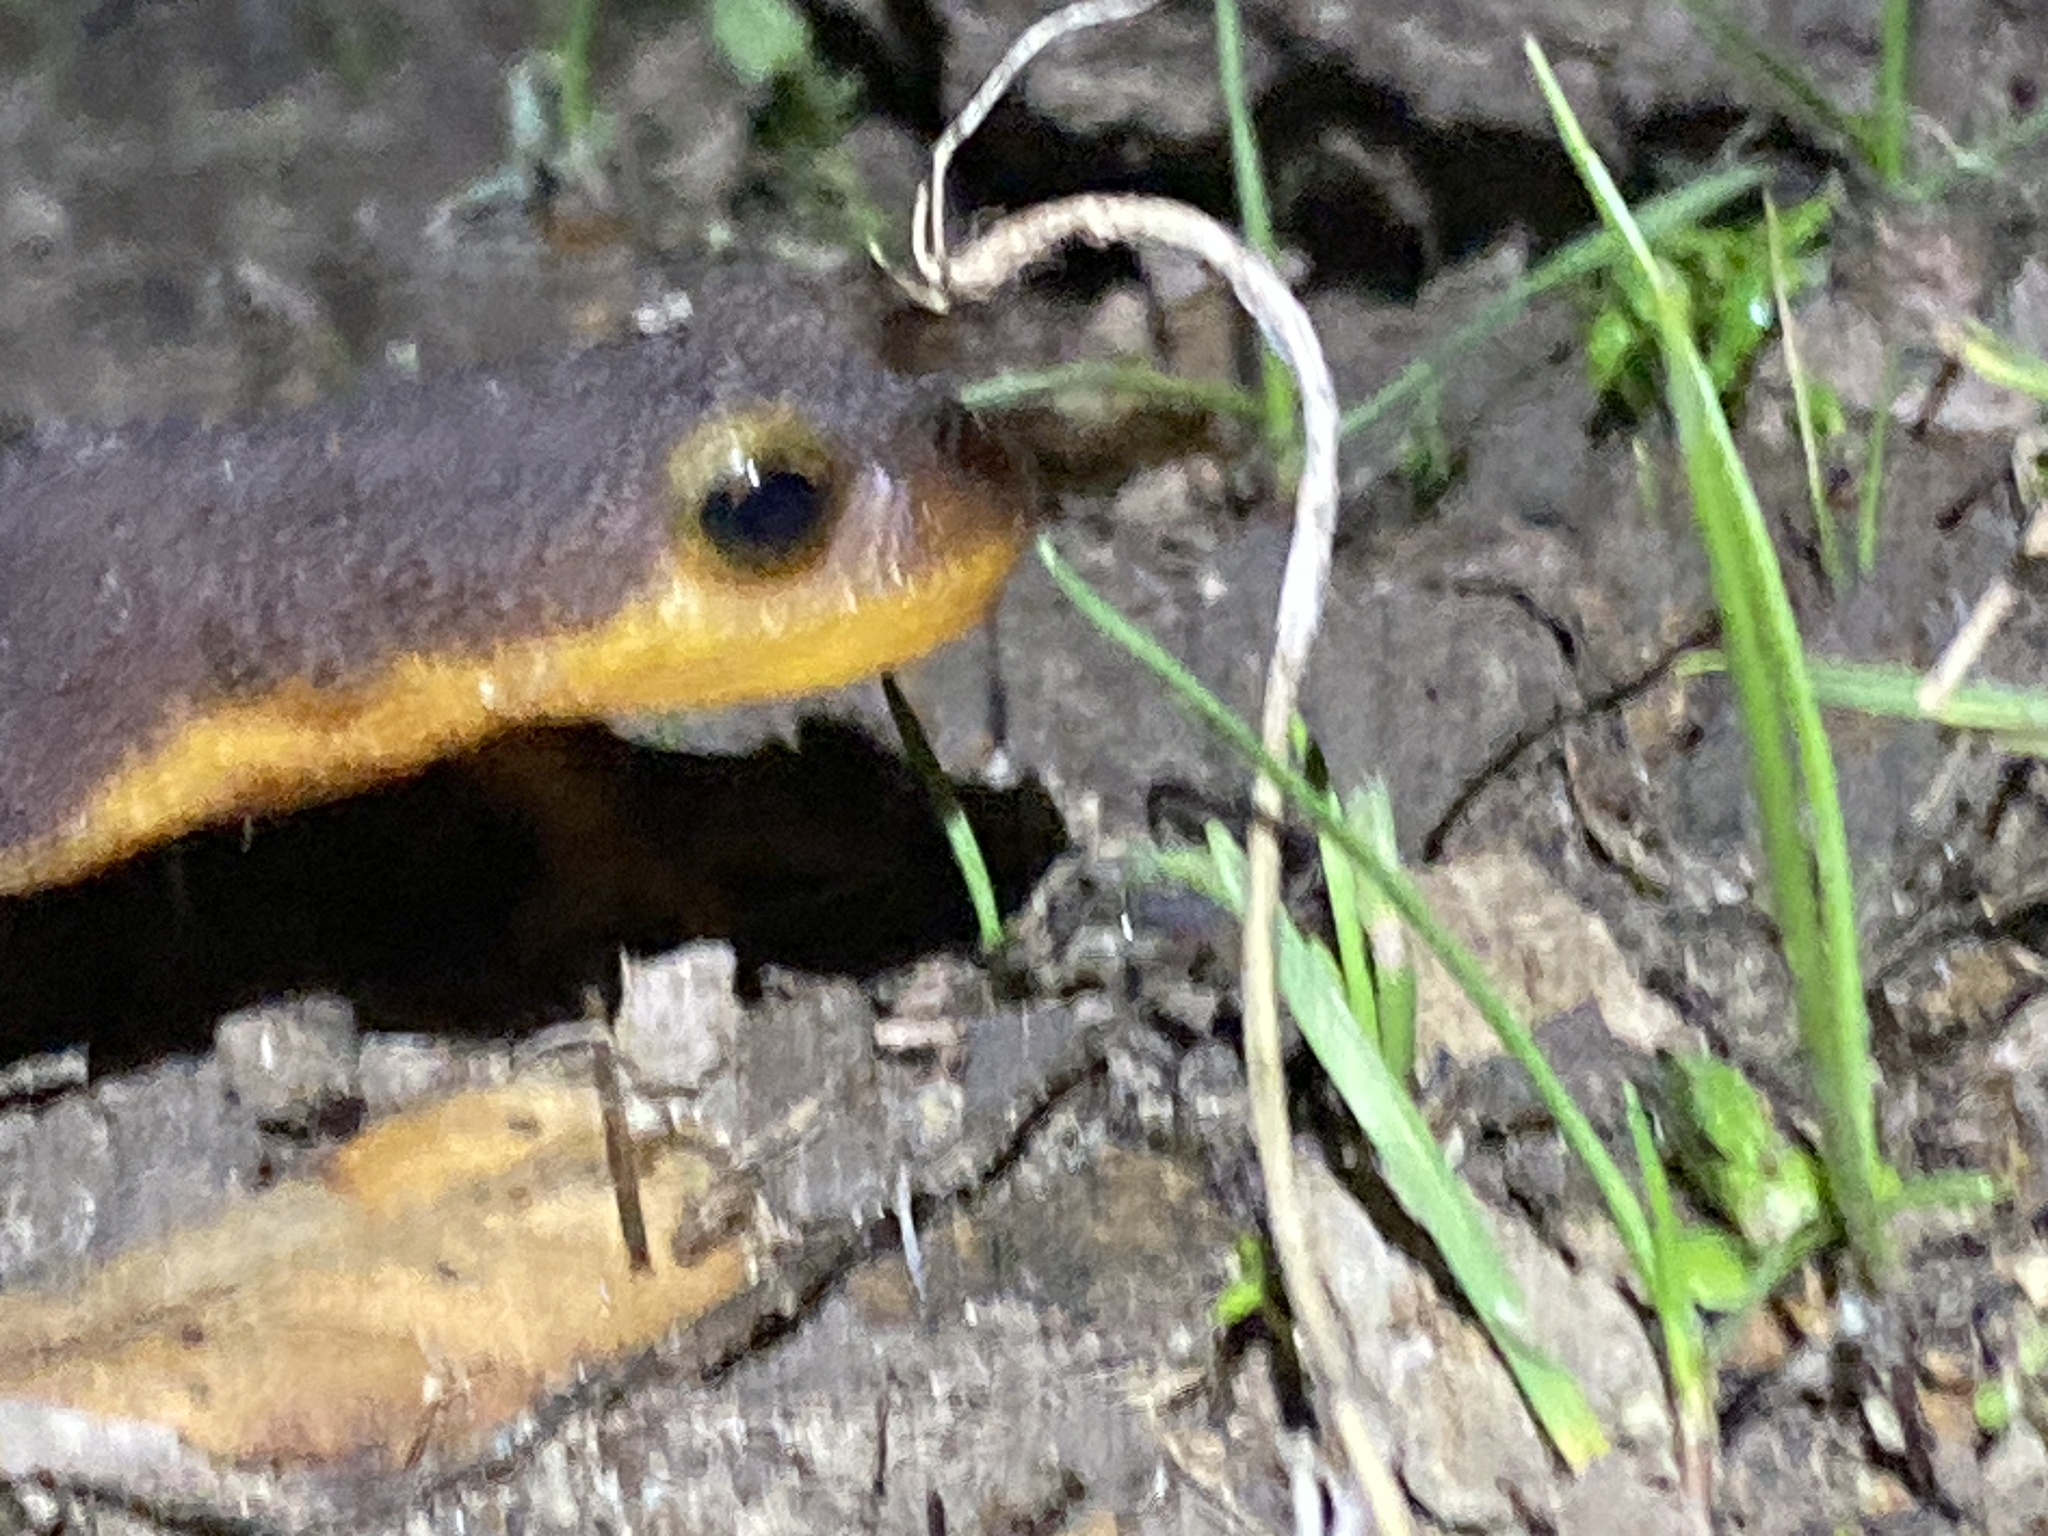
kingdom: Animalia
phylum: Chordata
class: Amphibia
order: Caudata
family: Salamandridae
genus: Taricha
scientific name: Taricha torosa
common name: California newt
